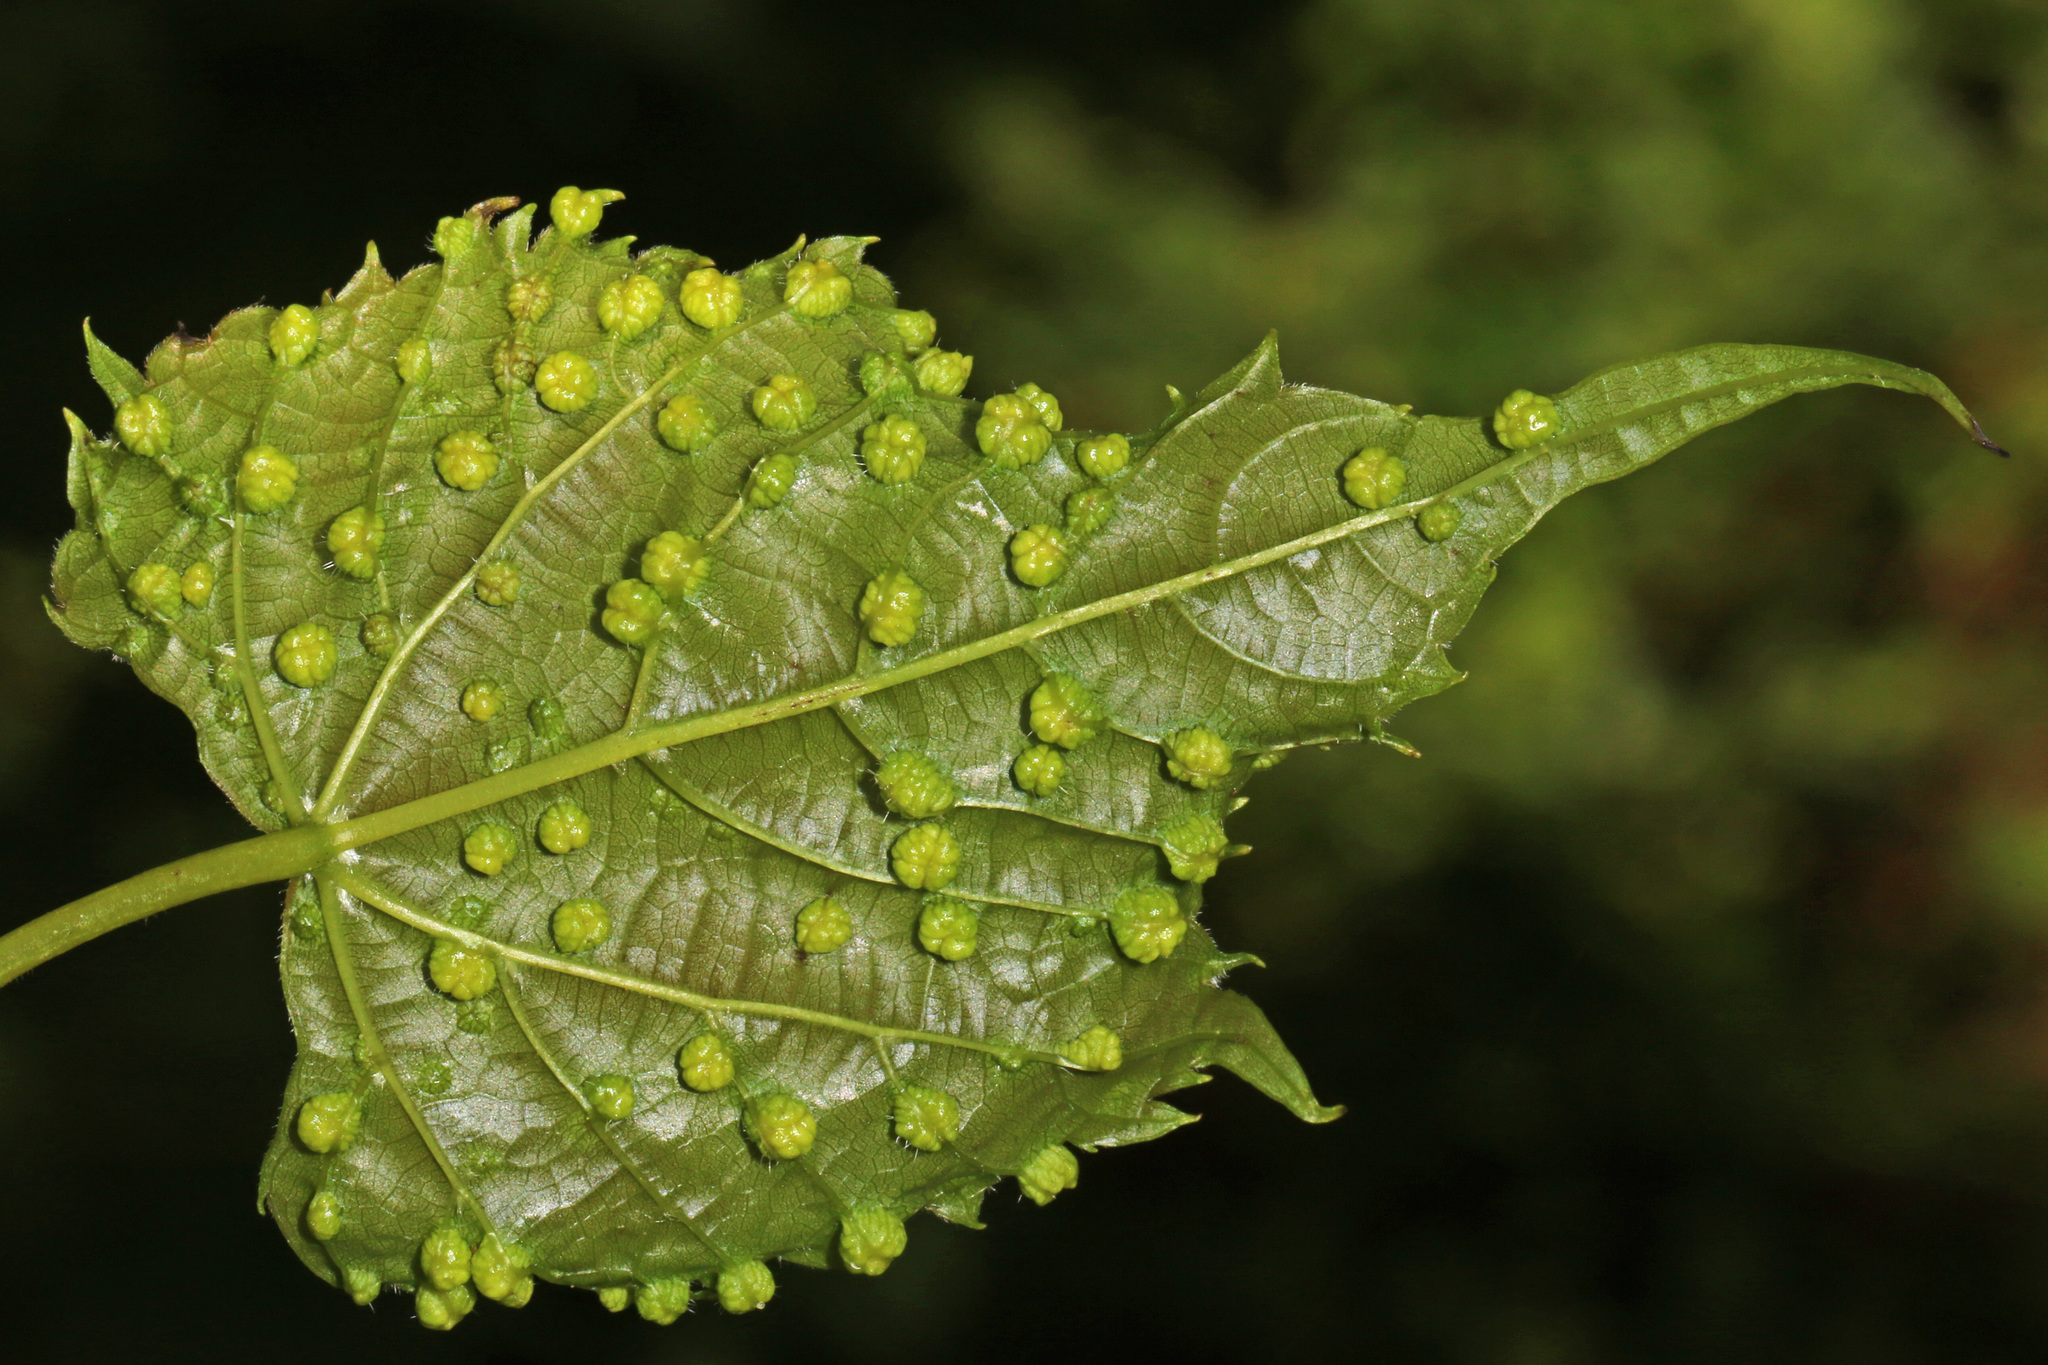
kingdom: Animalia
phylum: Arthropoda
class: Insecta
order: Hemiptera
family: Phylloxeridae
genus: Daktulosphaira
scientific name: Daktulosphaira vitifoliae
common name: Grape phylloxera
